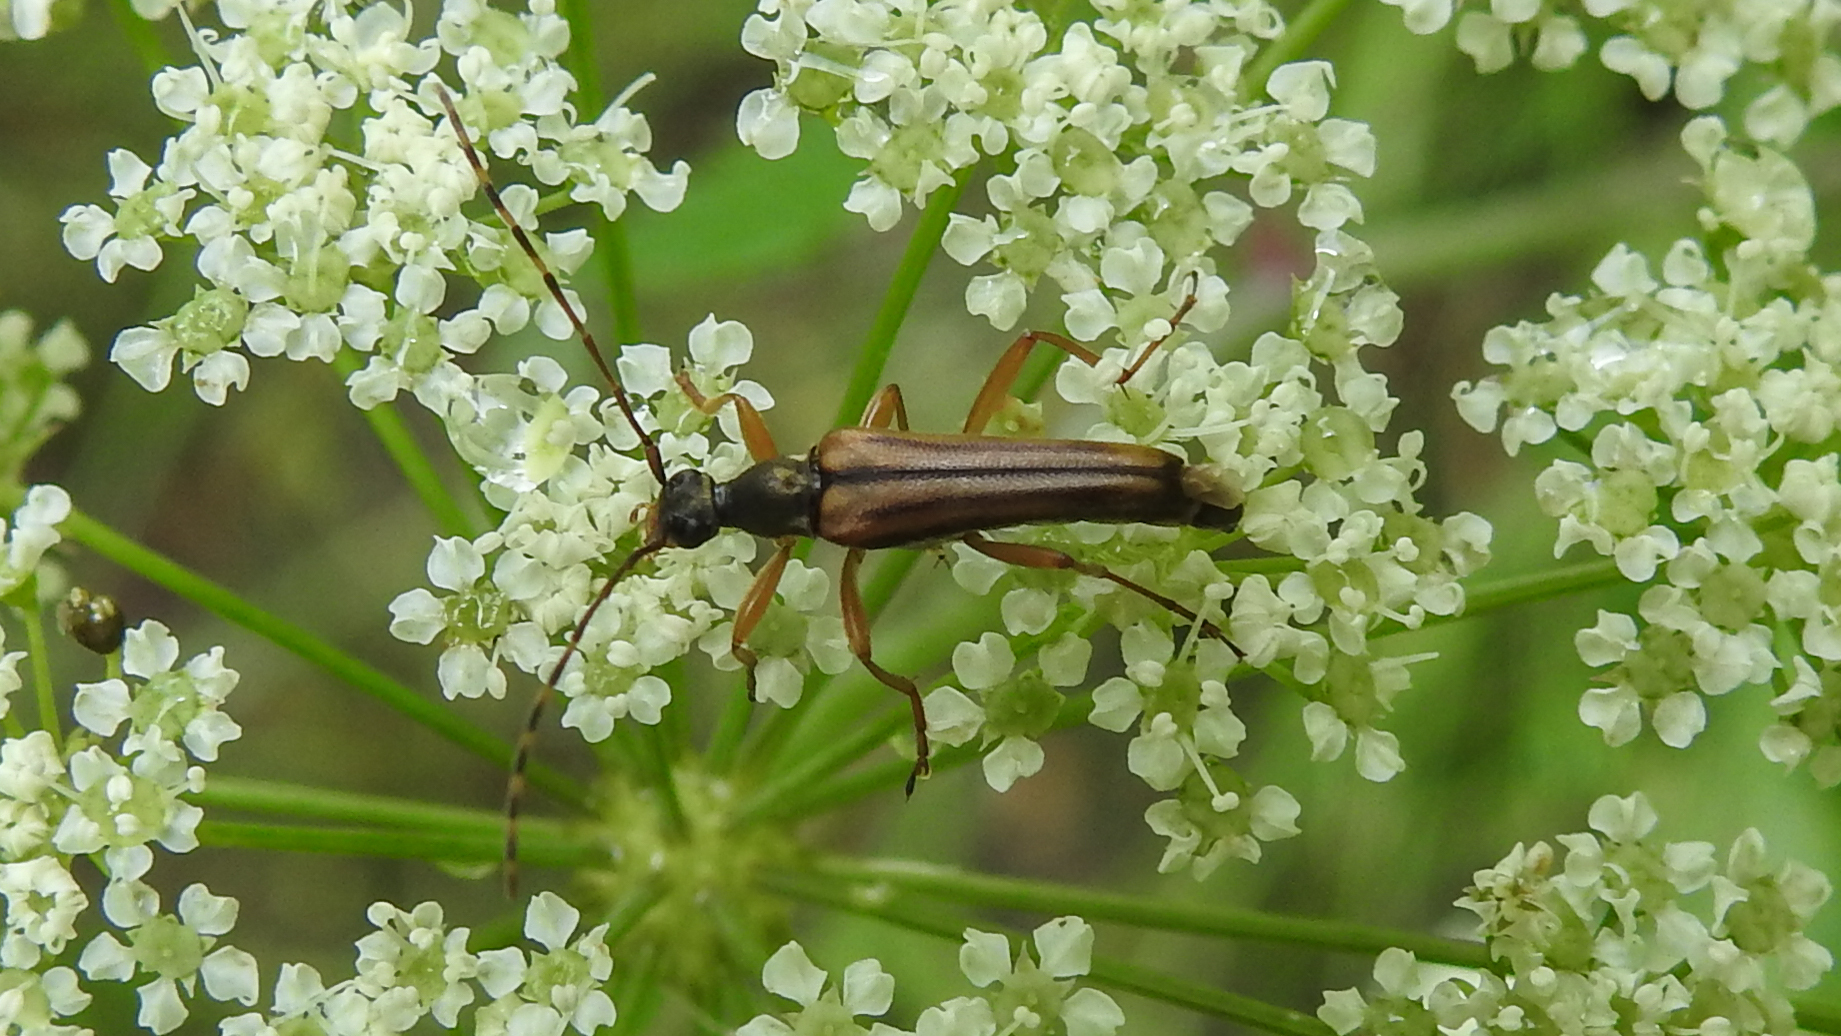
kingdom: Animalia
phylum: Arthropoda
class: Insecta
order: Coleoptera
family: Cerambycidae
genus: Analeptura
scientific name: Analeptura lineola
